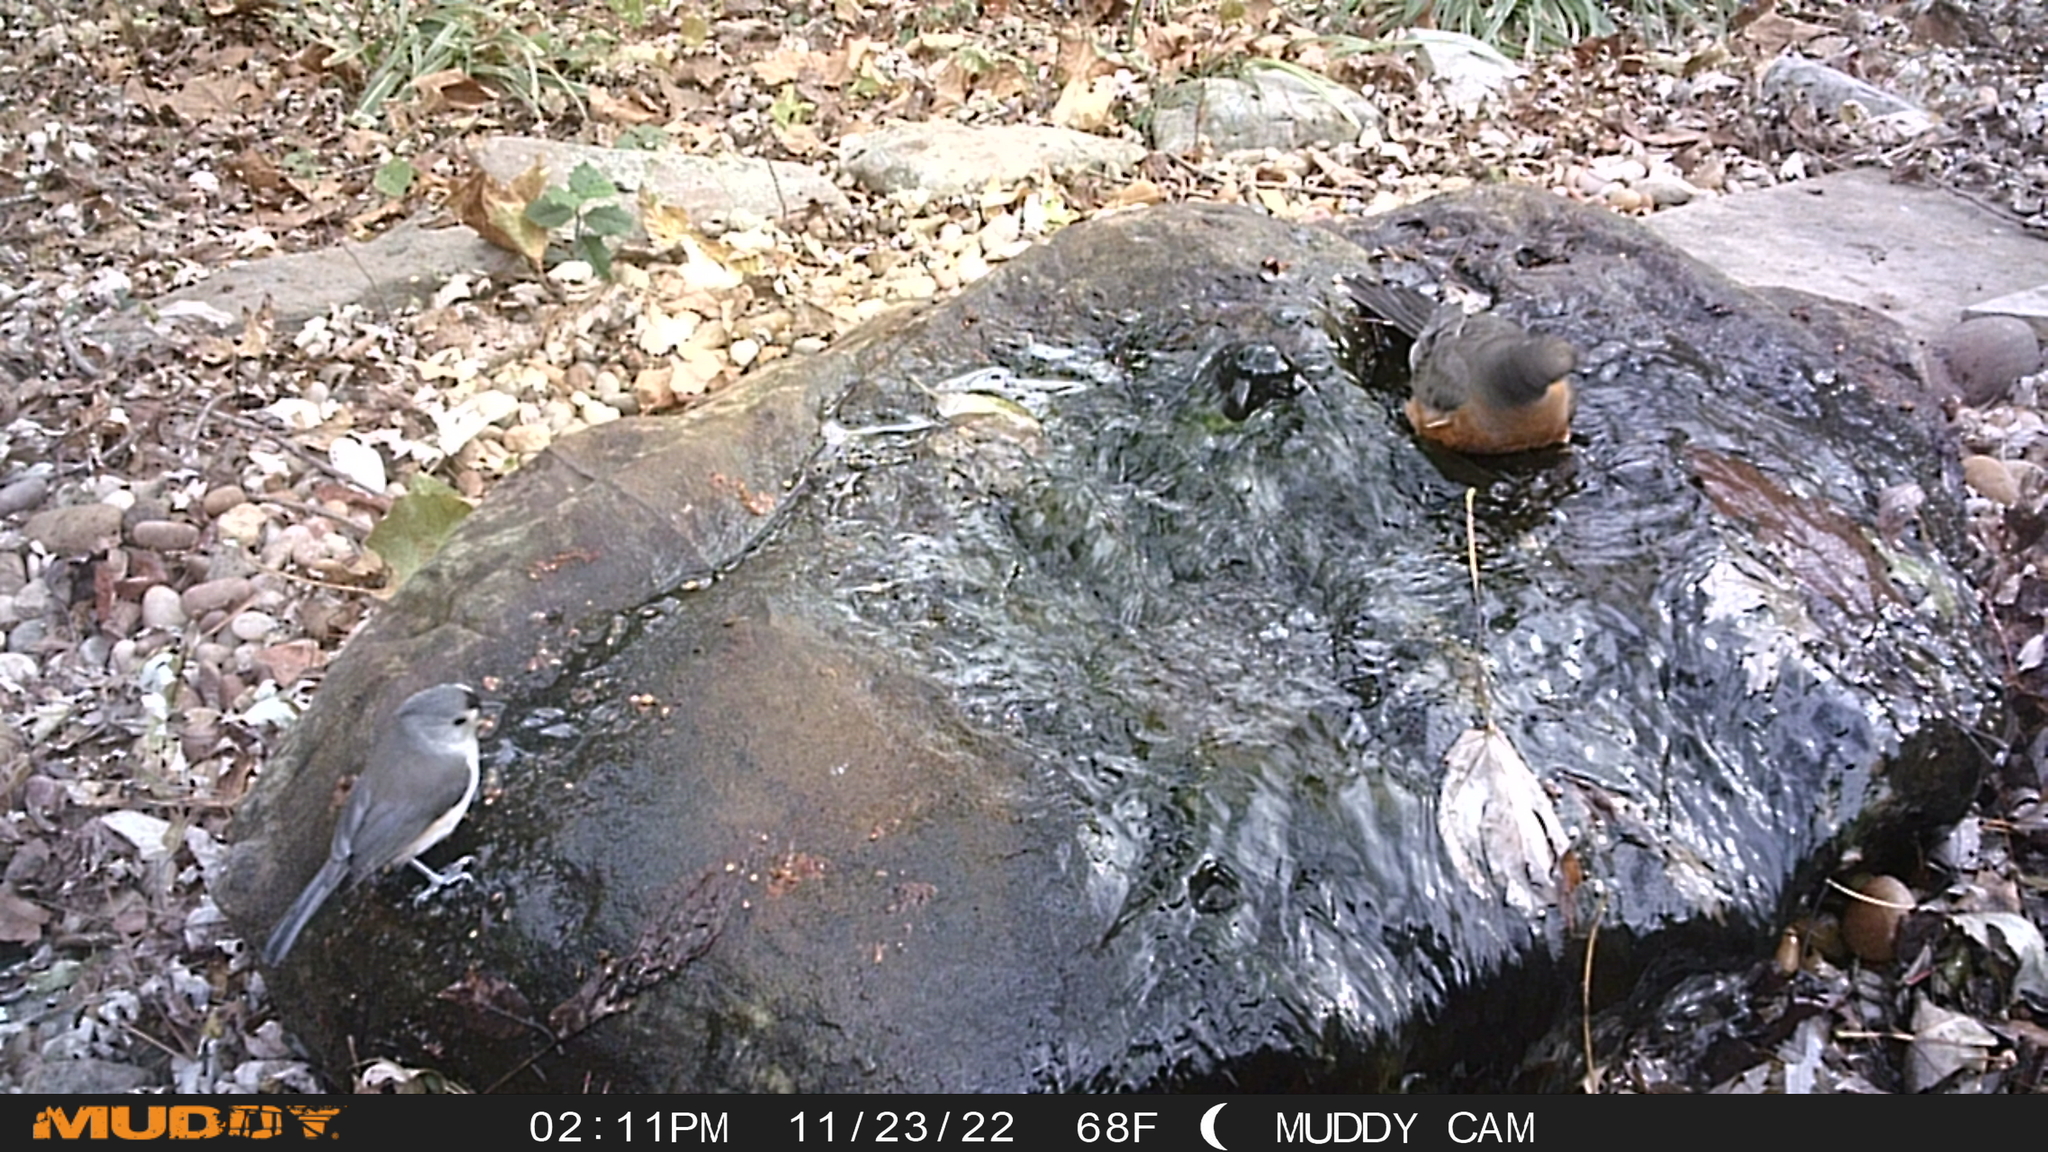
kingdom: Animalia
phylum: Chordata
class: Aves
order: Passeriformes
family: Paridae
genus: Baeolophus
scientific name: Baeolophus bicolor
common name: Tufted titmouse
